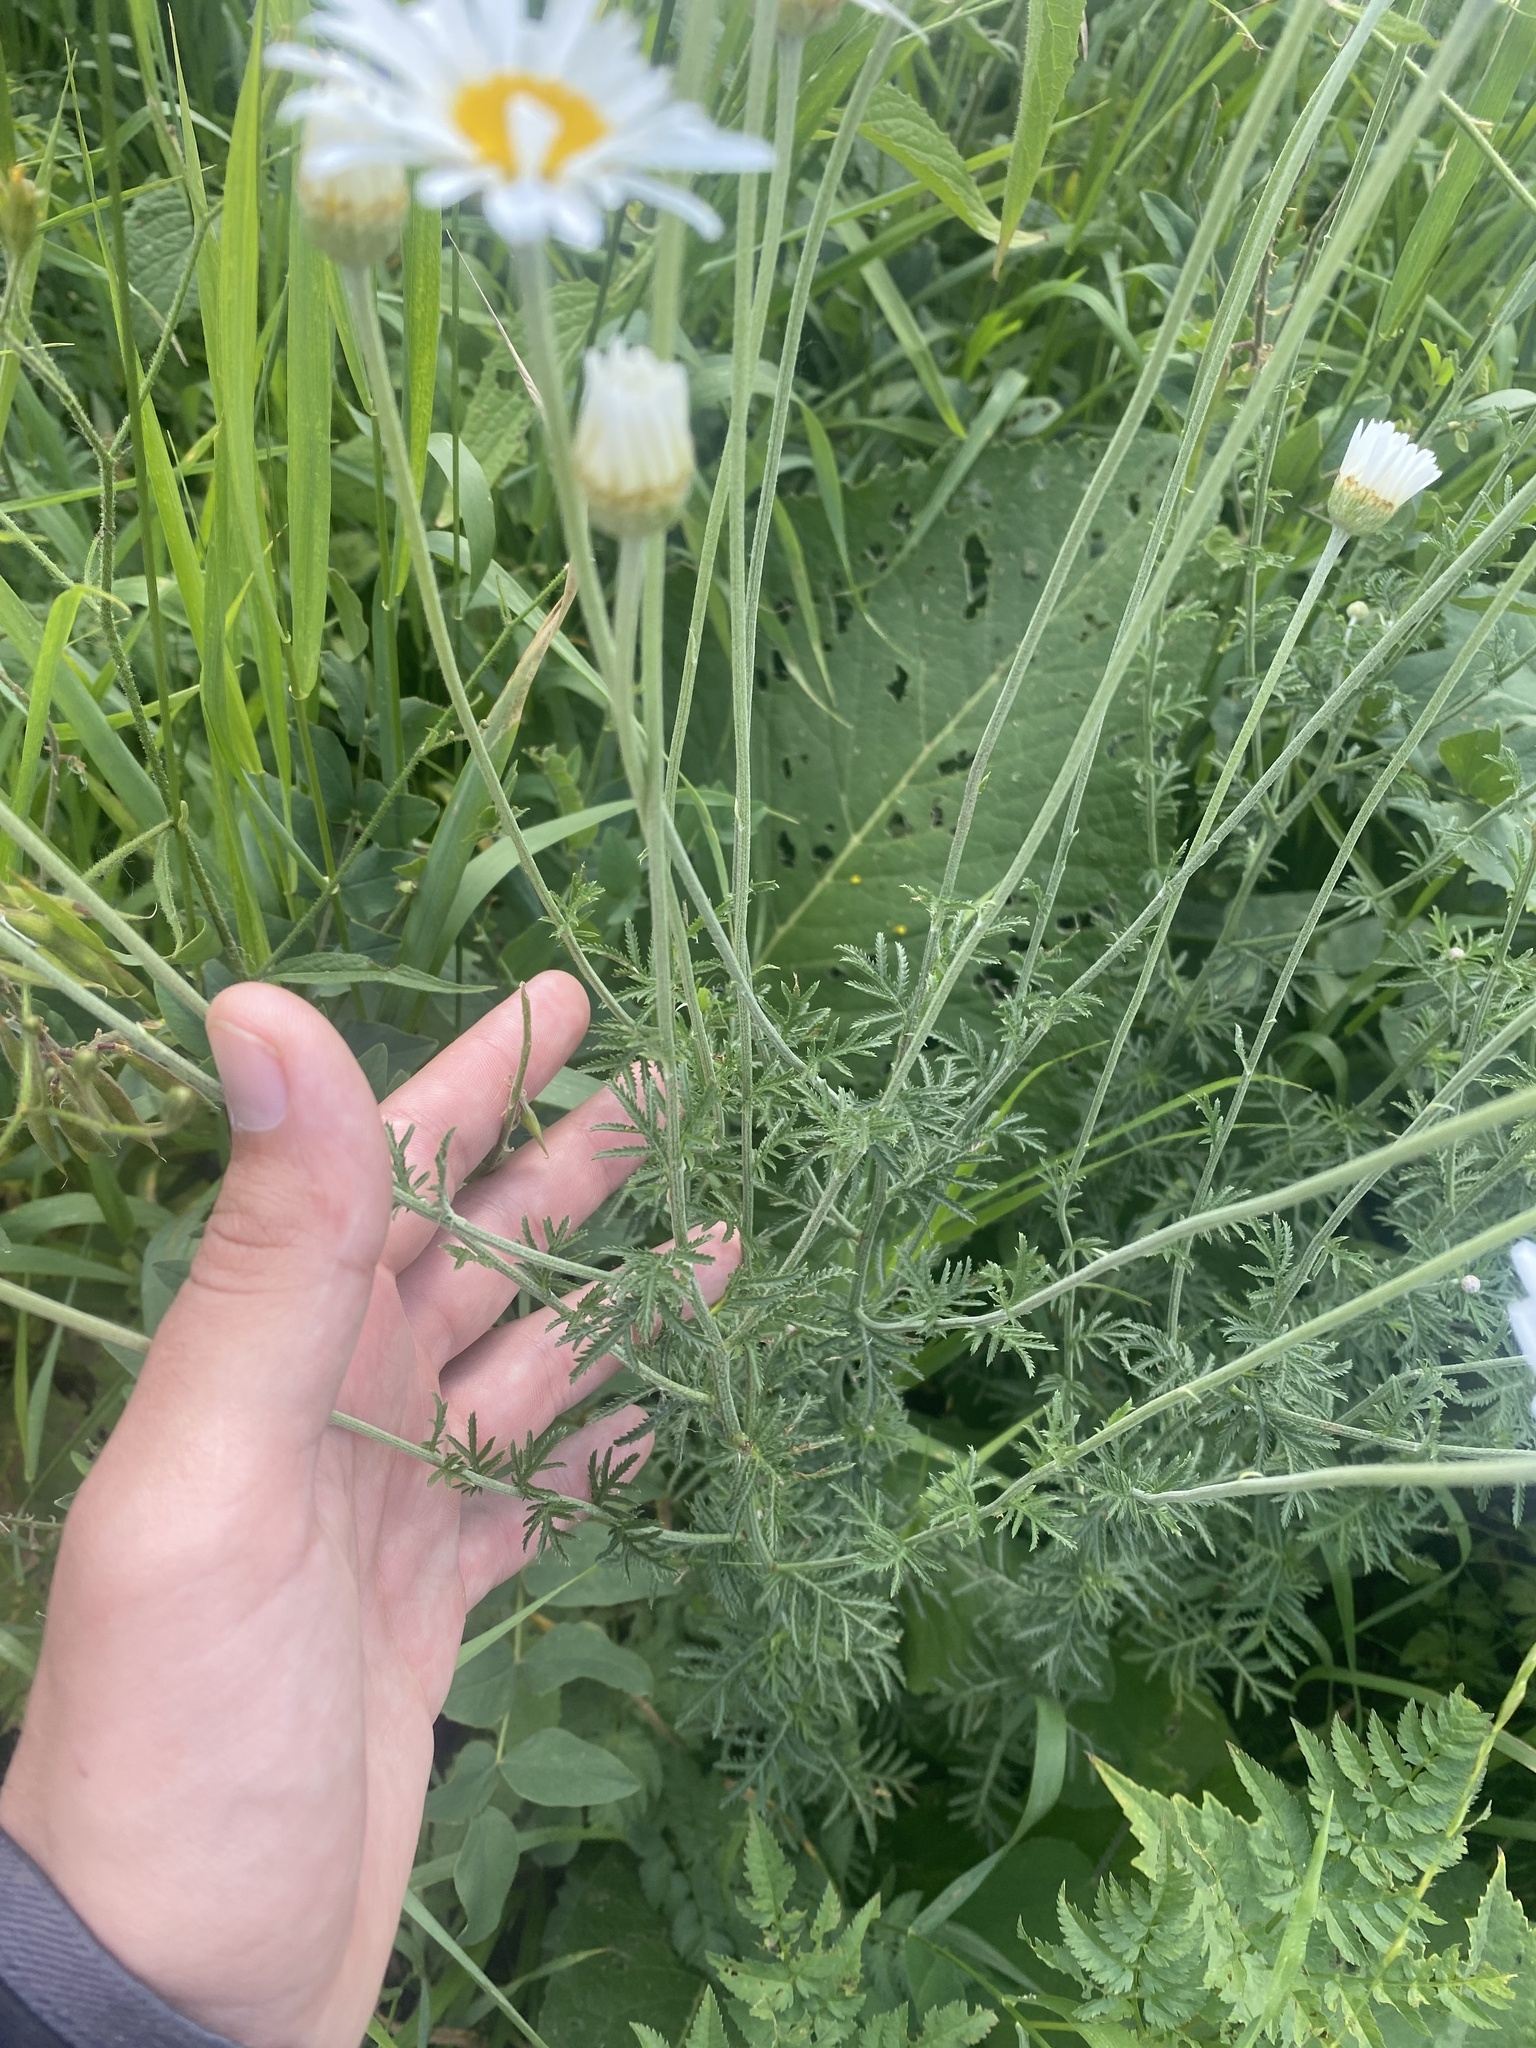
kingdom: Plantae
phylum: Tracheophyta
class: Magnoliopsida
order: Asterales
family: Asteraceae
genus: Cota
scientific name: Cota triumfetti
